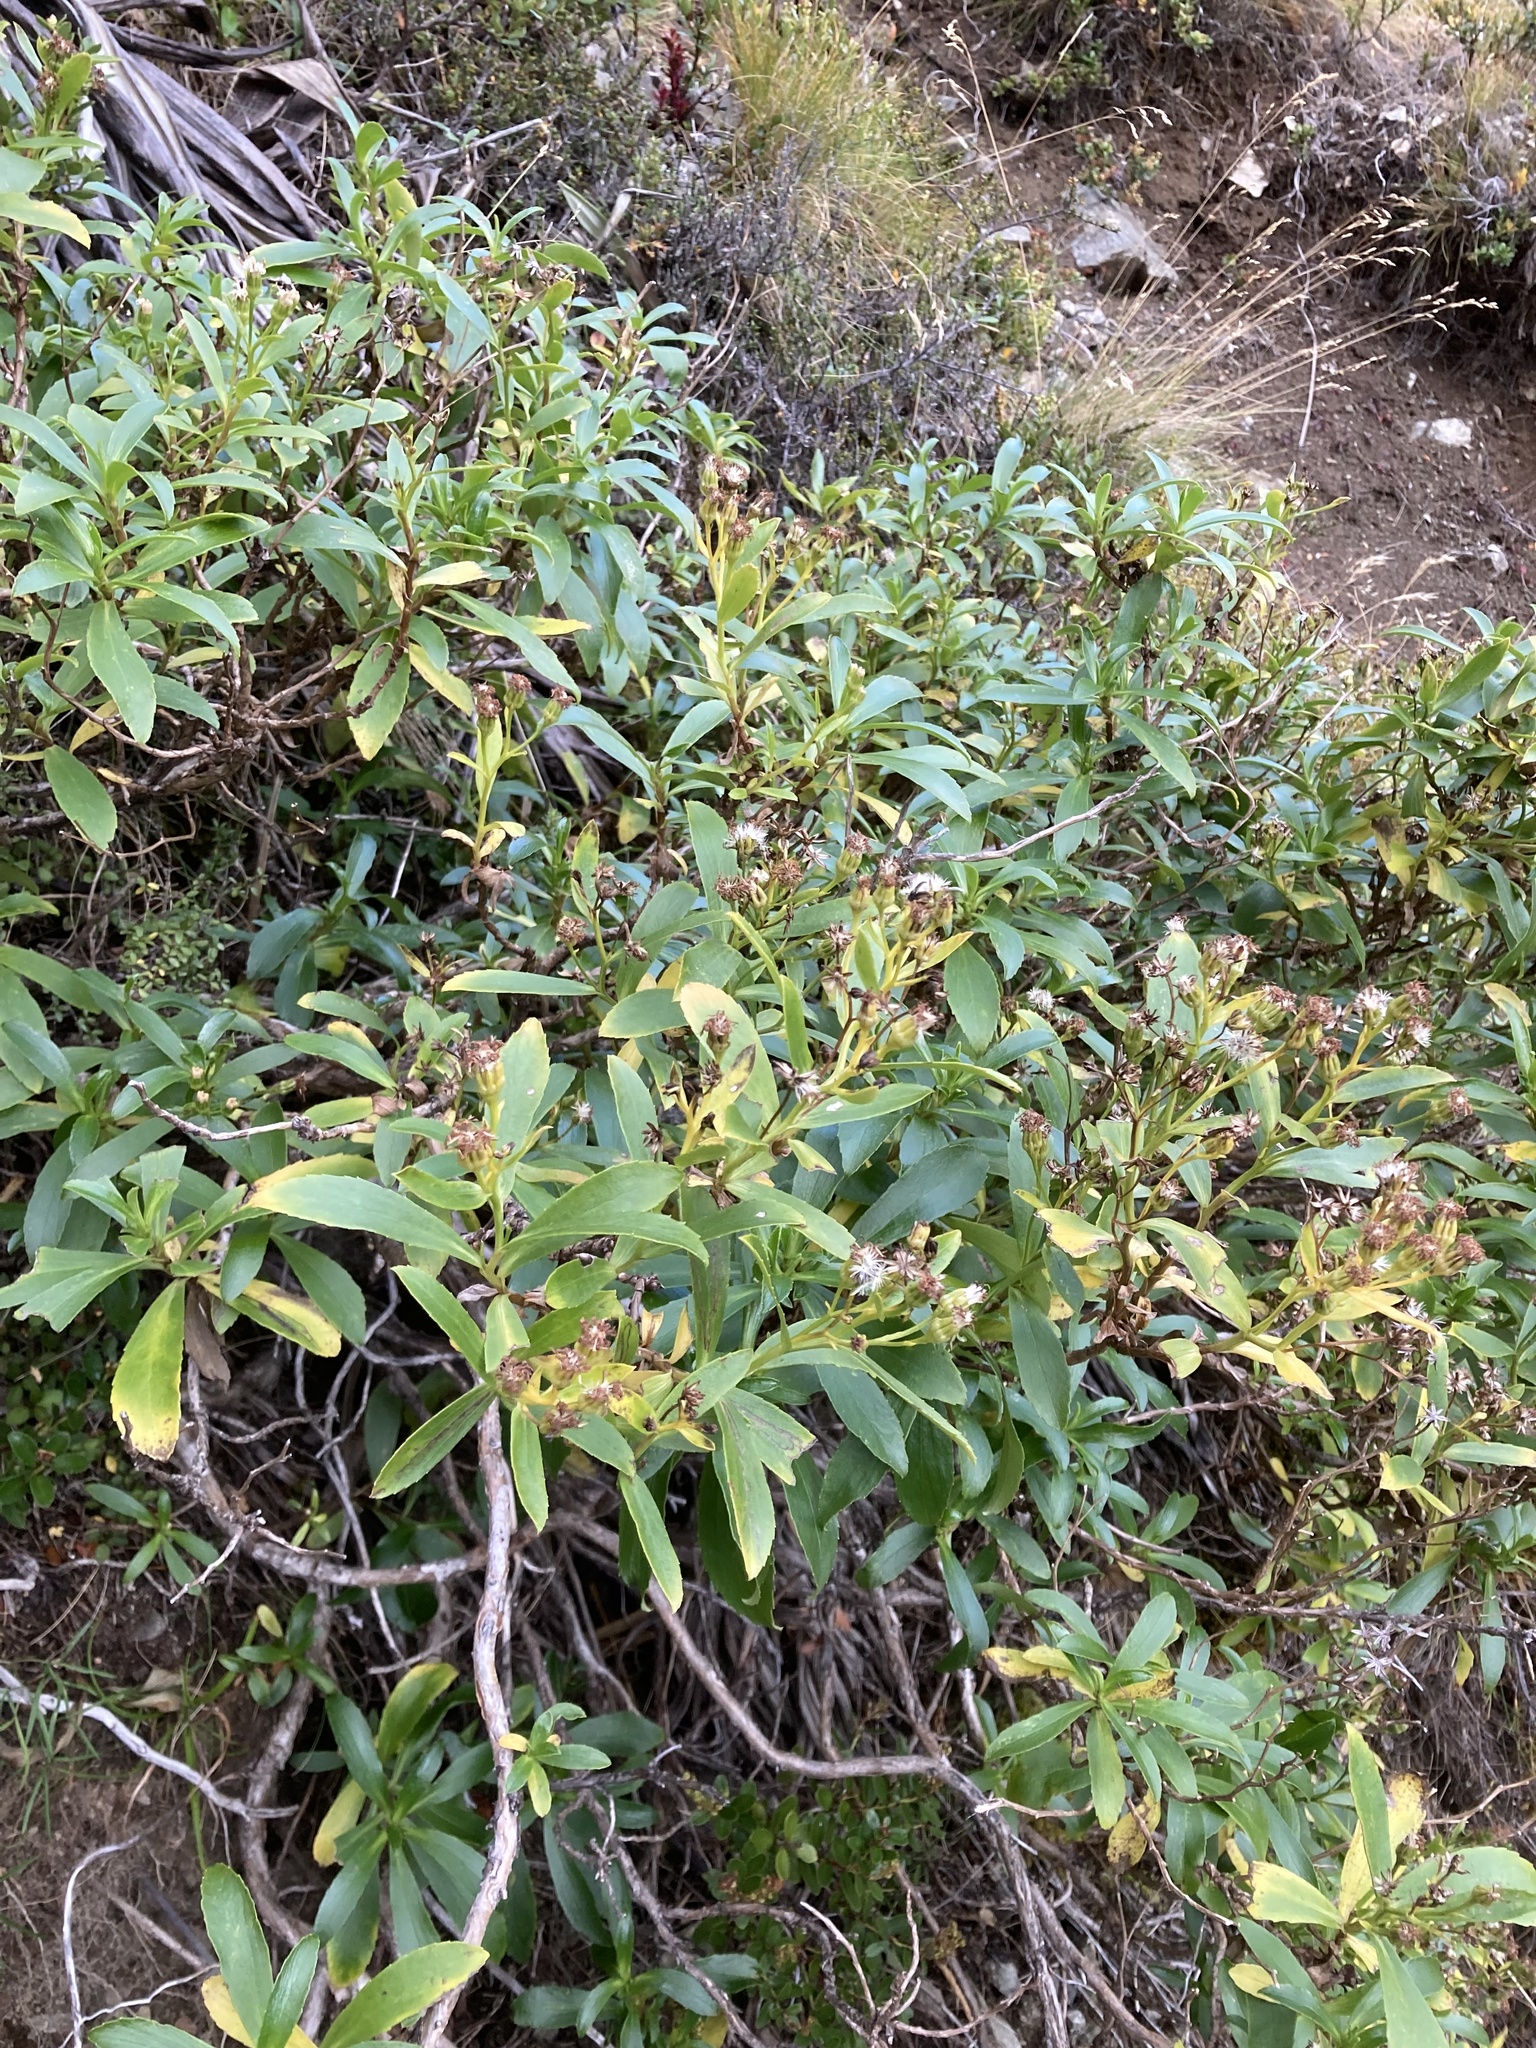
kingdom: Plantae
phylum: Tracheophyta
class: Magnoliopsida
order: Asterales
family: Asteraceae
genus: Traversia
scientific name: Traversia baccharoides
